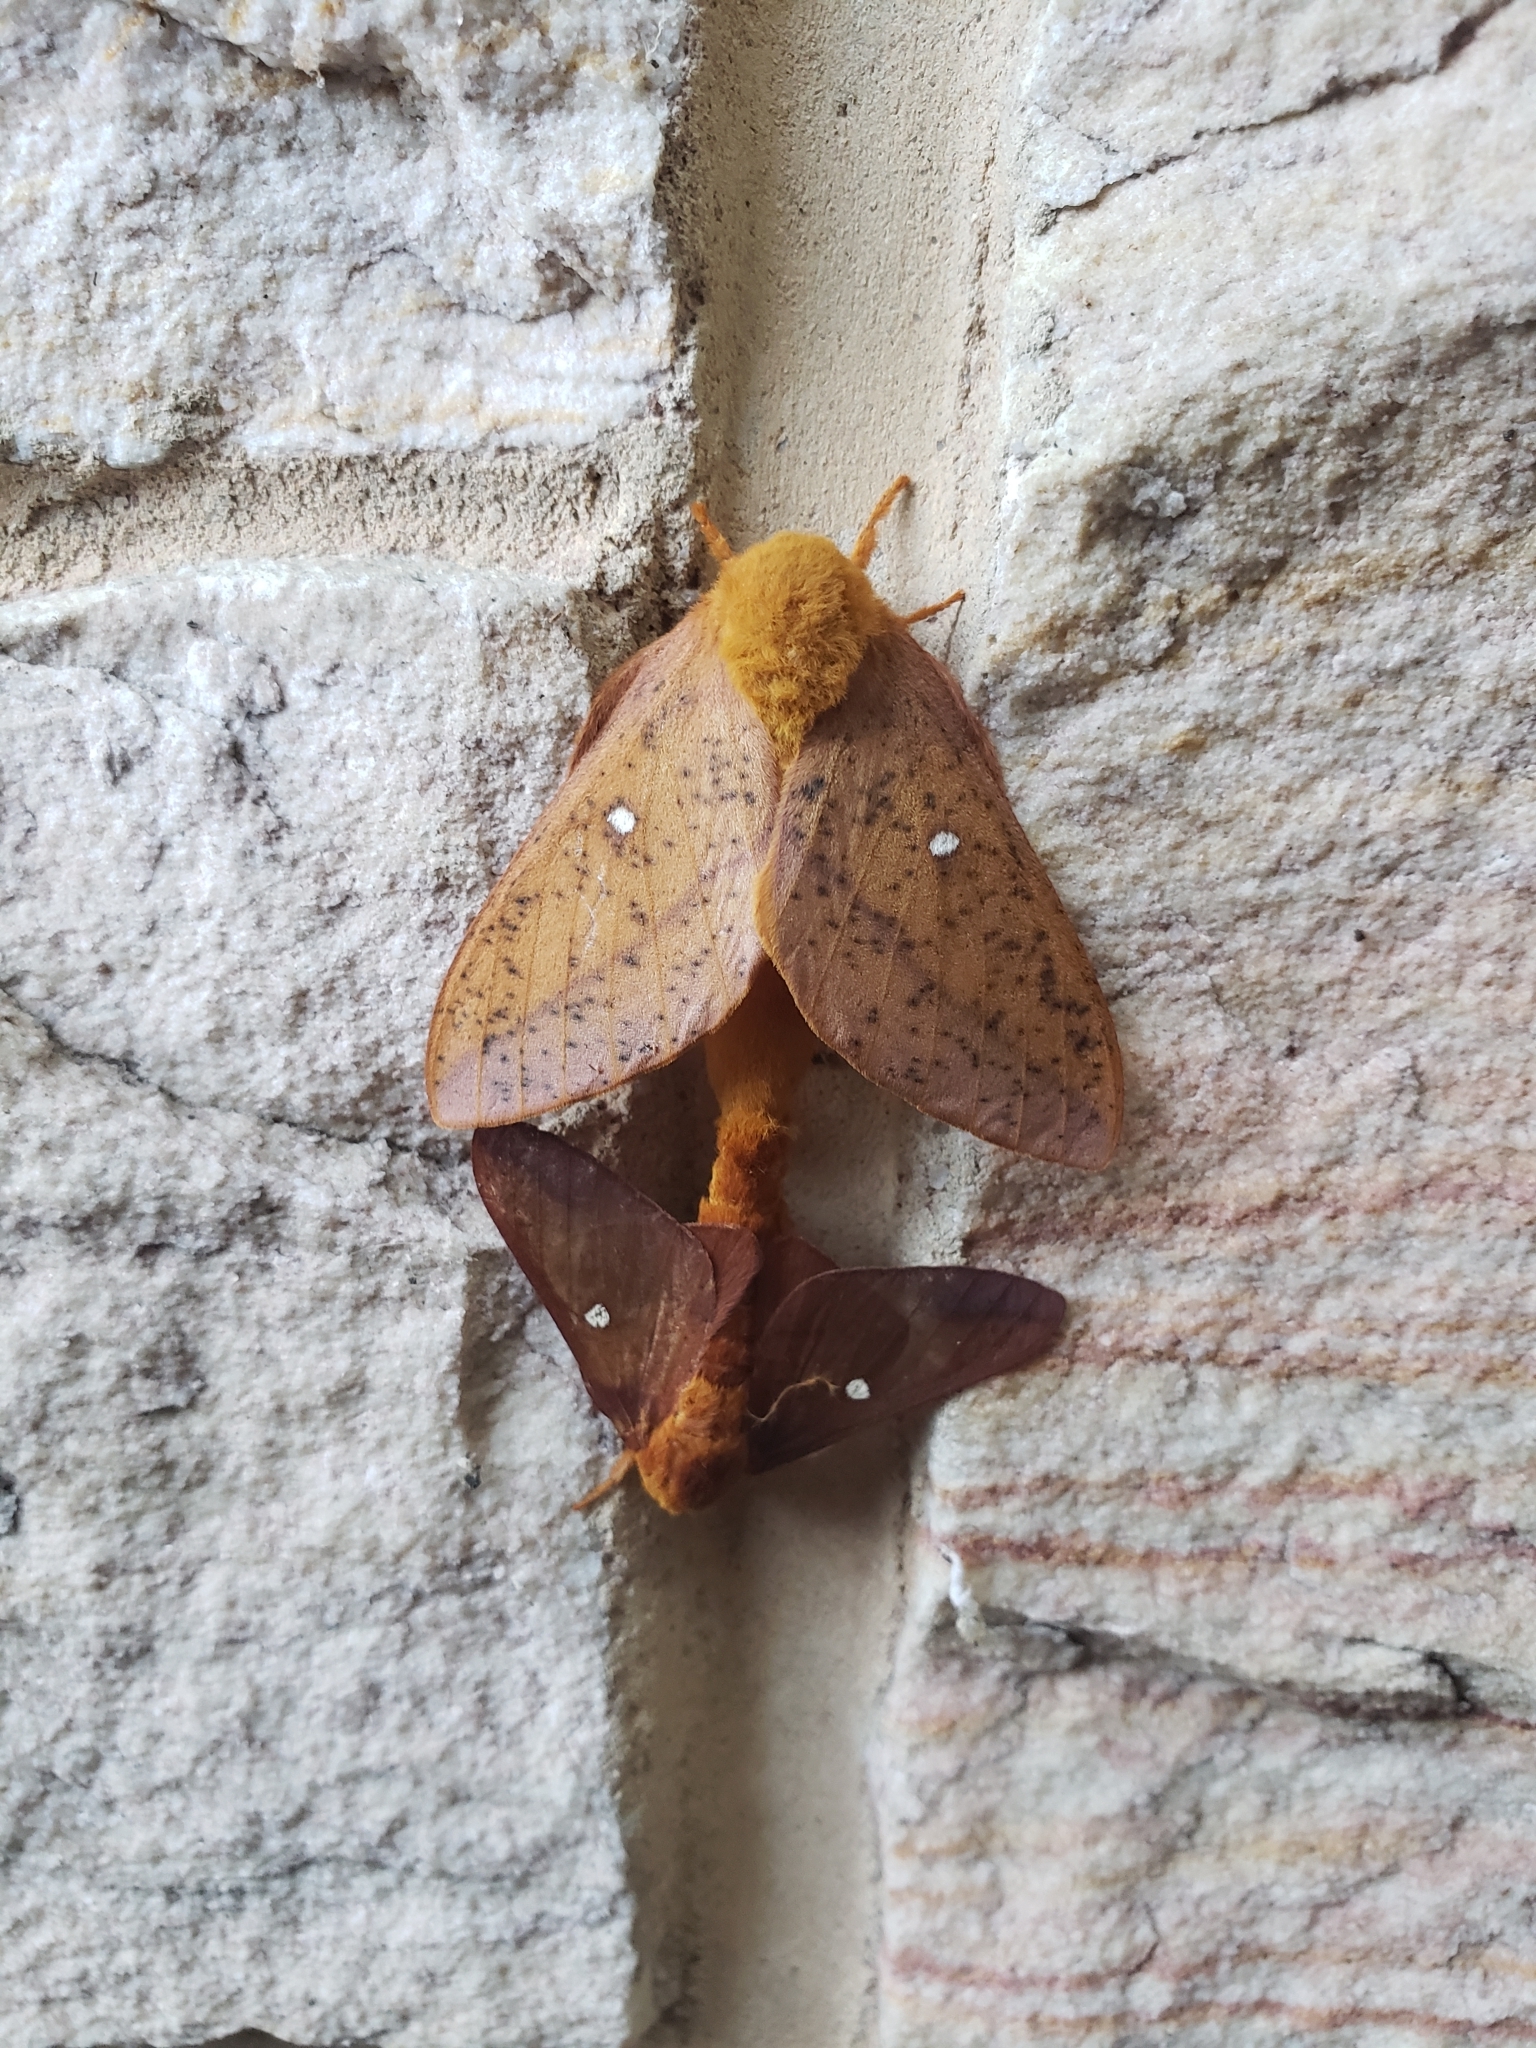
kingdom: Animalia
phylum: Arthropoda
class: Insecta
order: Lepidoptera
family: Saturniidae
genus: Anisota
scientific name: Anisota senatoria
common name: Orange-striped oakworm moth
